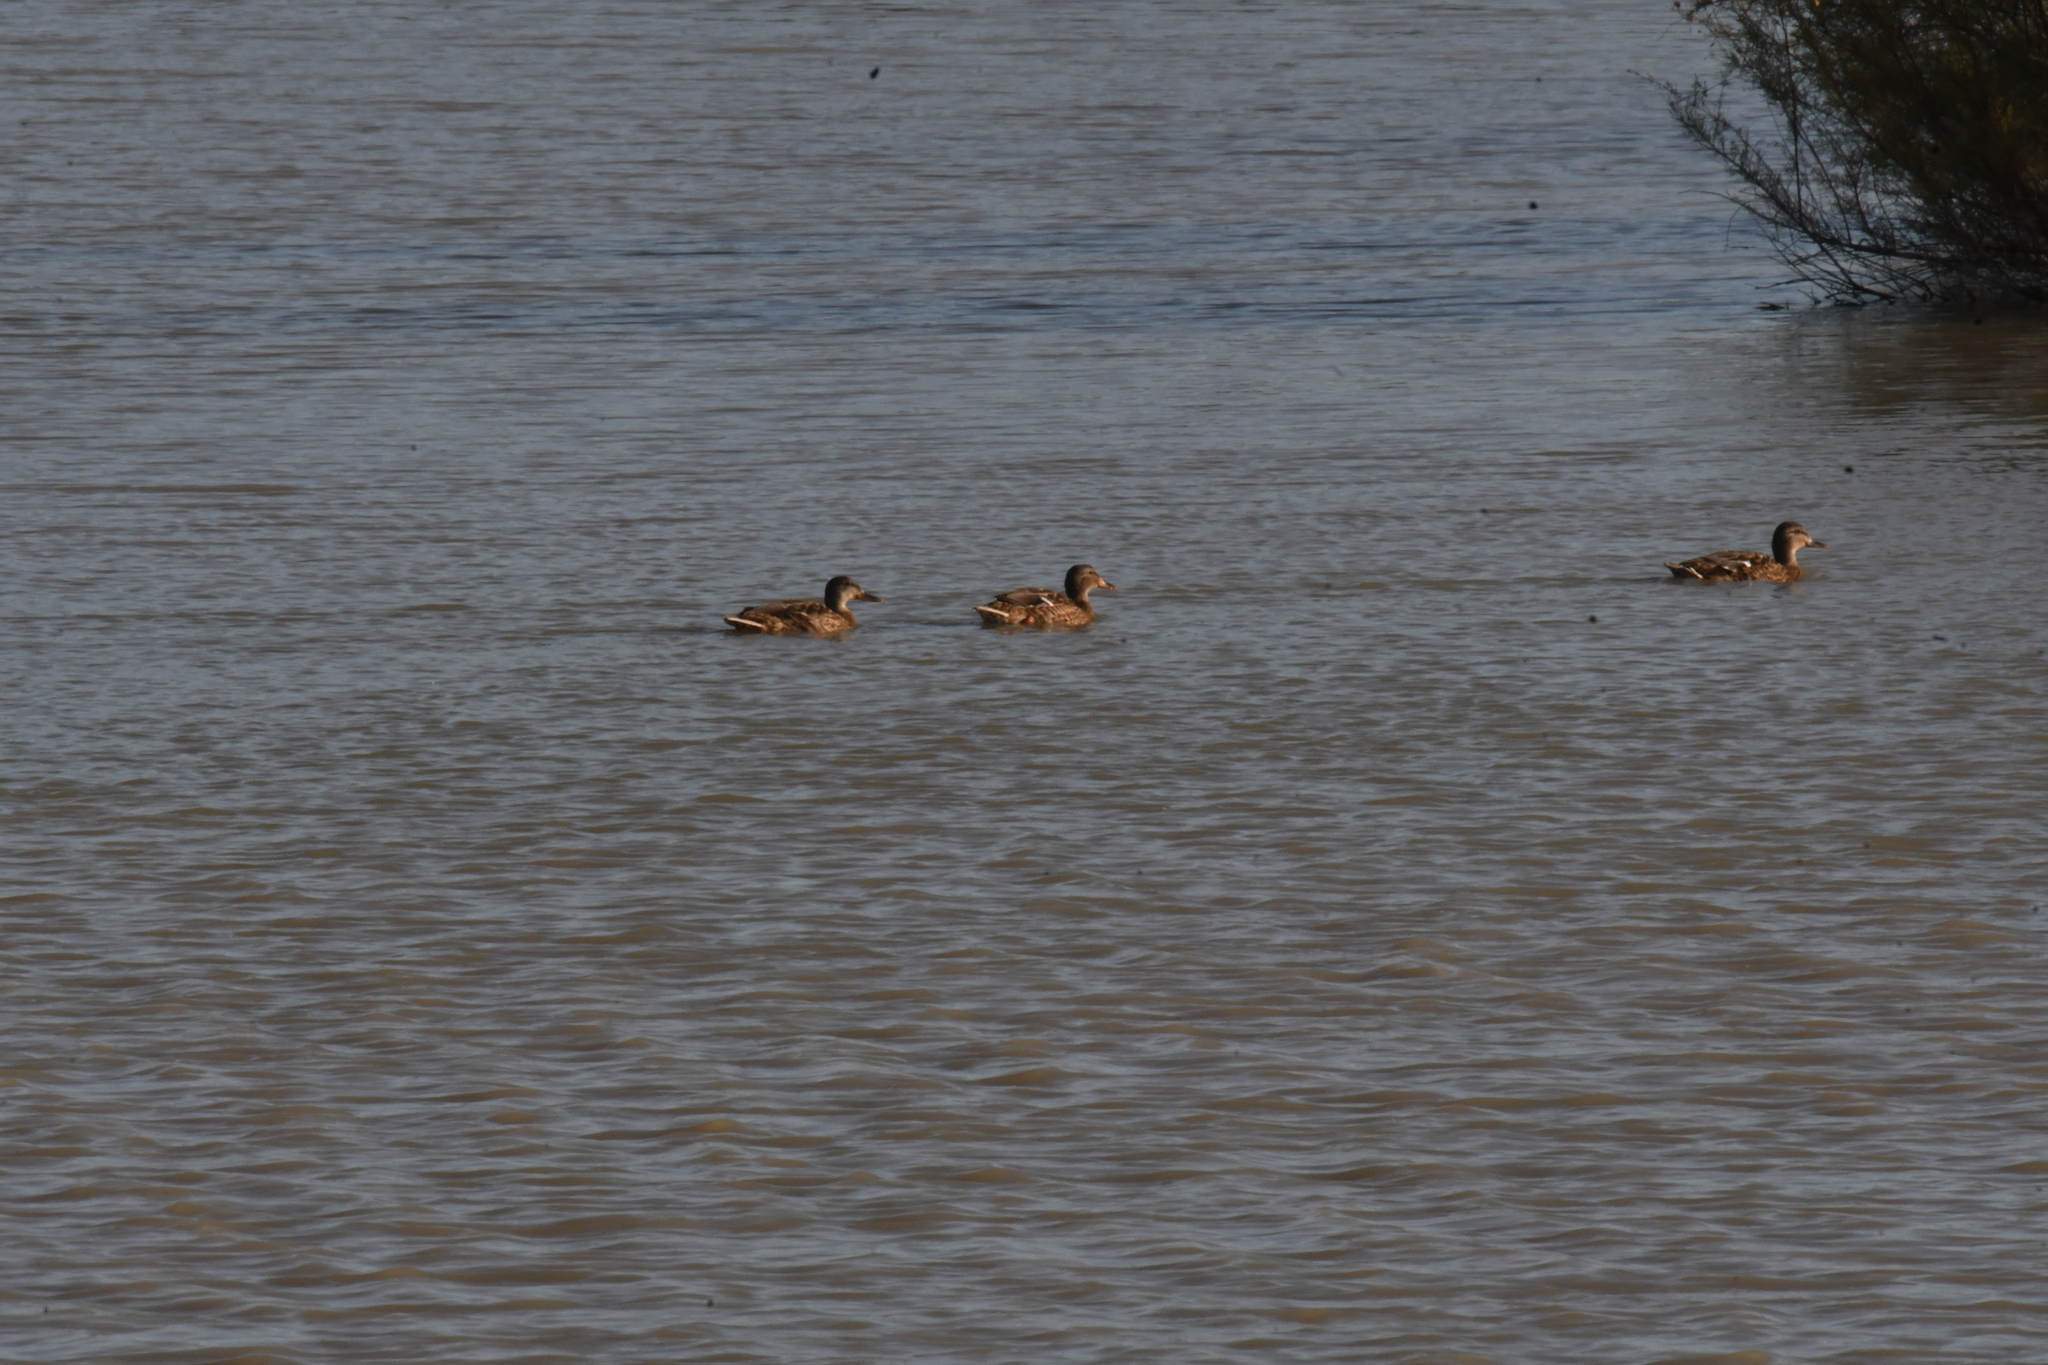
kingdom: Animalia
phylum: Chordata
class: Aves
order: Anseriformes
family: Anatidae
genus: Anas
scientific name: Anas platyrhynchos
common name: Mallard
